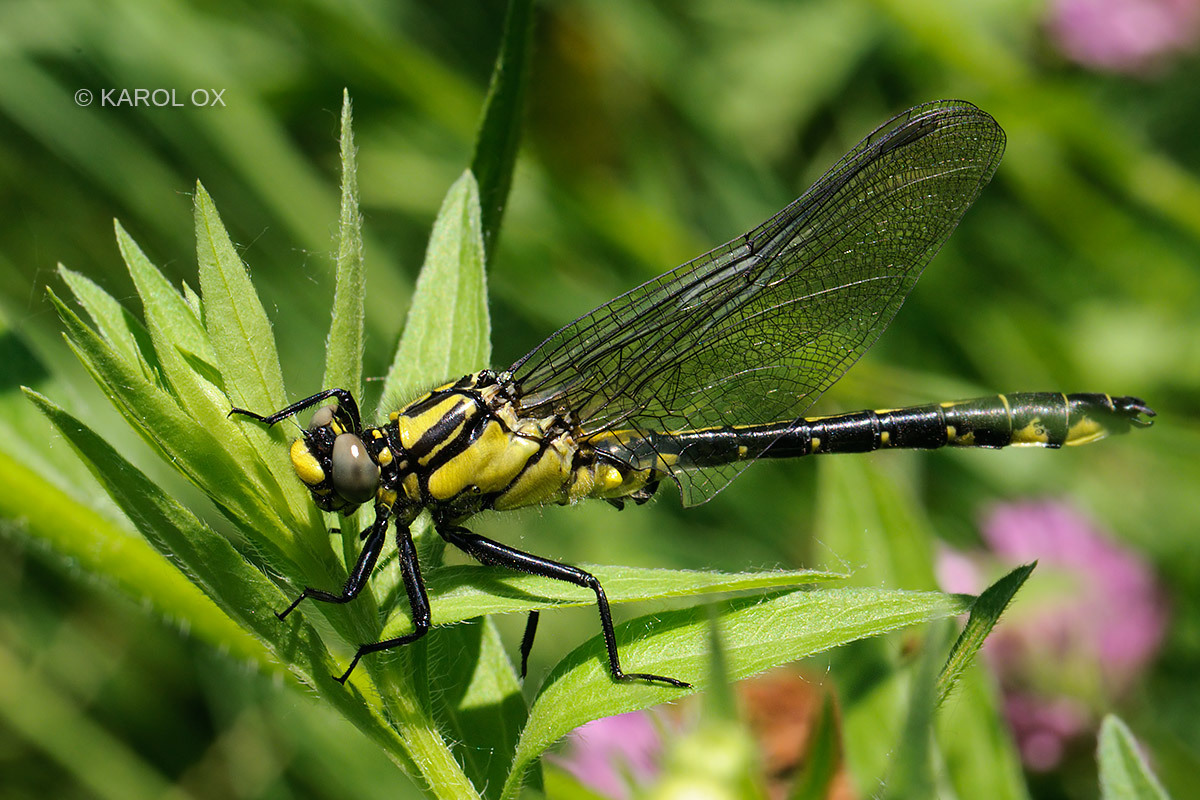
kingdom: Animalia
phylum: Arthropoda
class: Insecta
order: Odonata
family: Gomphidae
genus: Gomphus
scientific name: Gomphus vulgatissimus
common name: Club-tailed dragonfly
